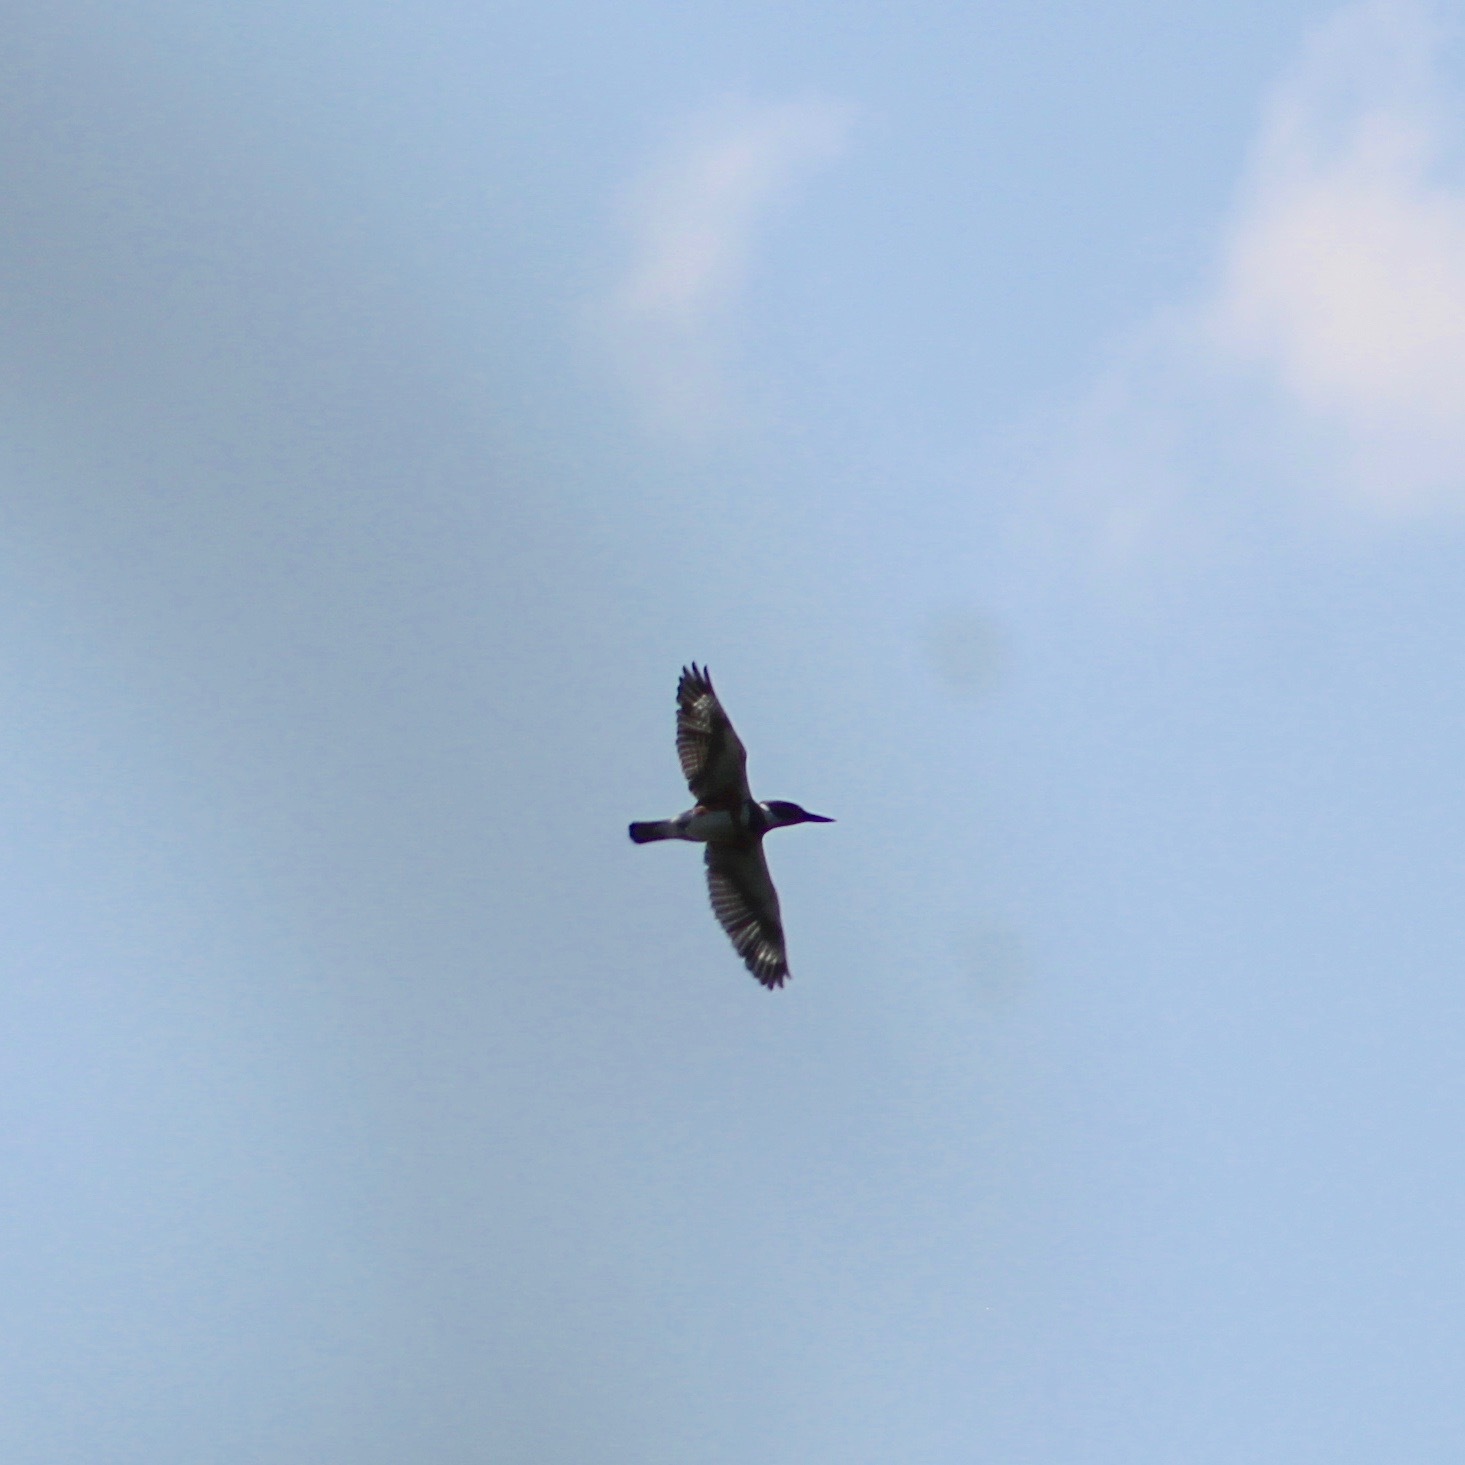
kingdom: Animalia
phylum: Chordata
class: Aves
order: Coraciiformes
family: Alcedinidae
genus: Megaceryle
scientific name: Megaceryle alcyon
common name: Belted kingfisher
